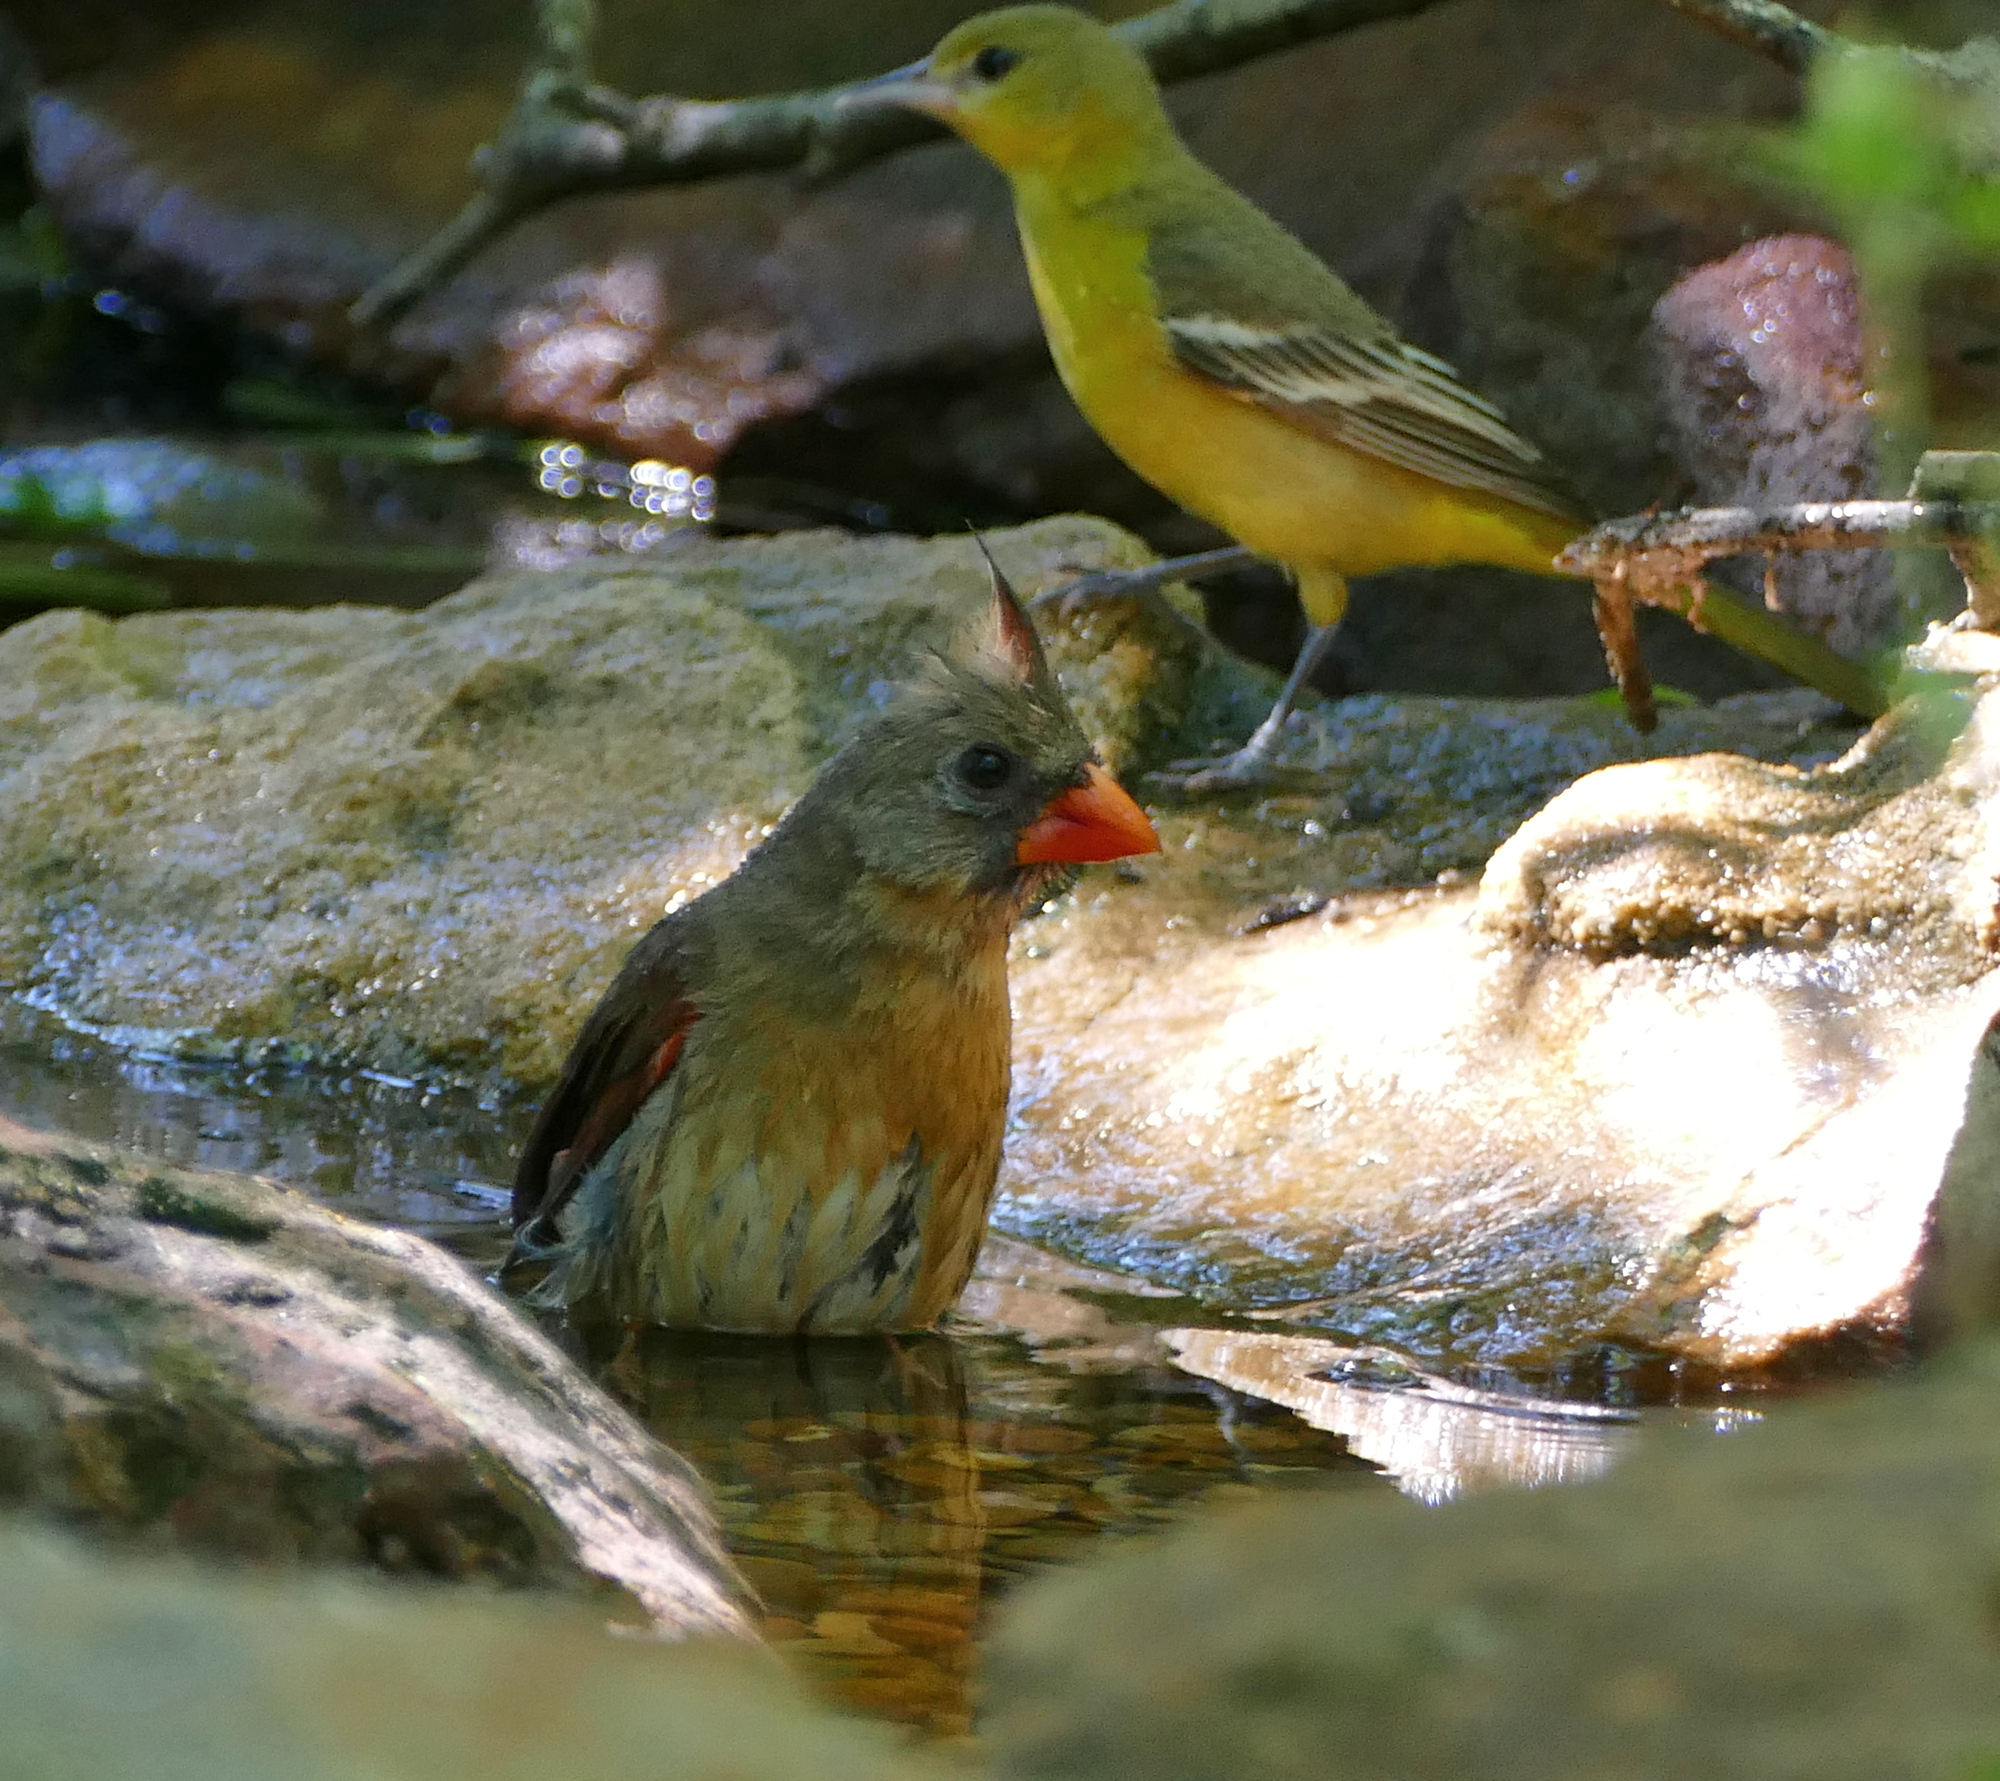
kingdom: Animalia
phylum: Chordata
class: Aves
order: Passeriformes
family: Cardinalidae
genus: Cardinalis
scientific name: Cardinalis cardinalis
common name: Northern cardinal
